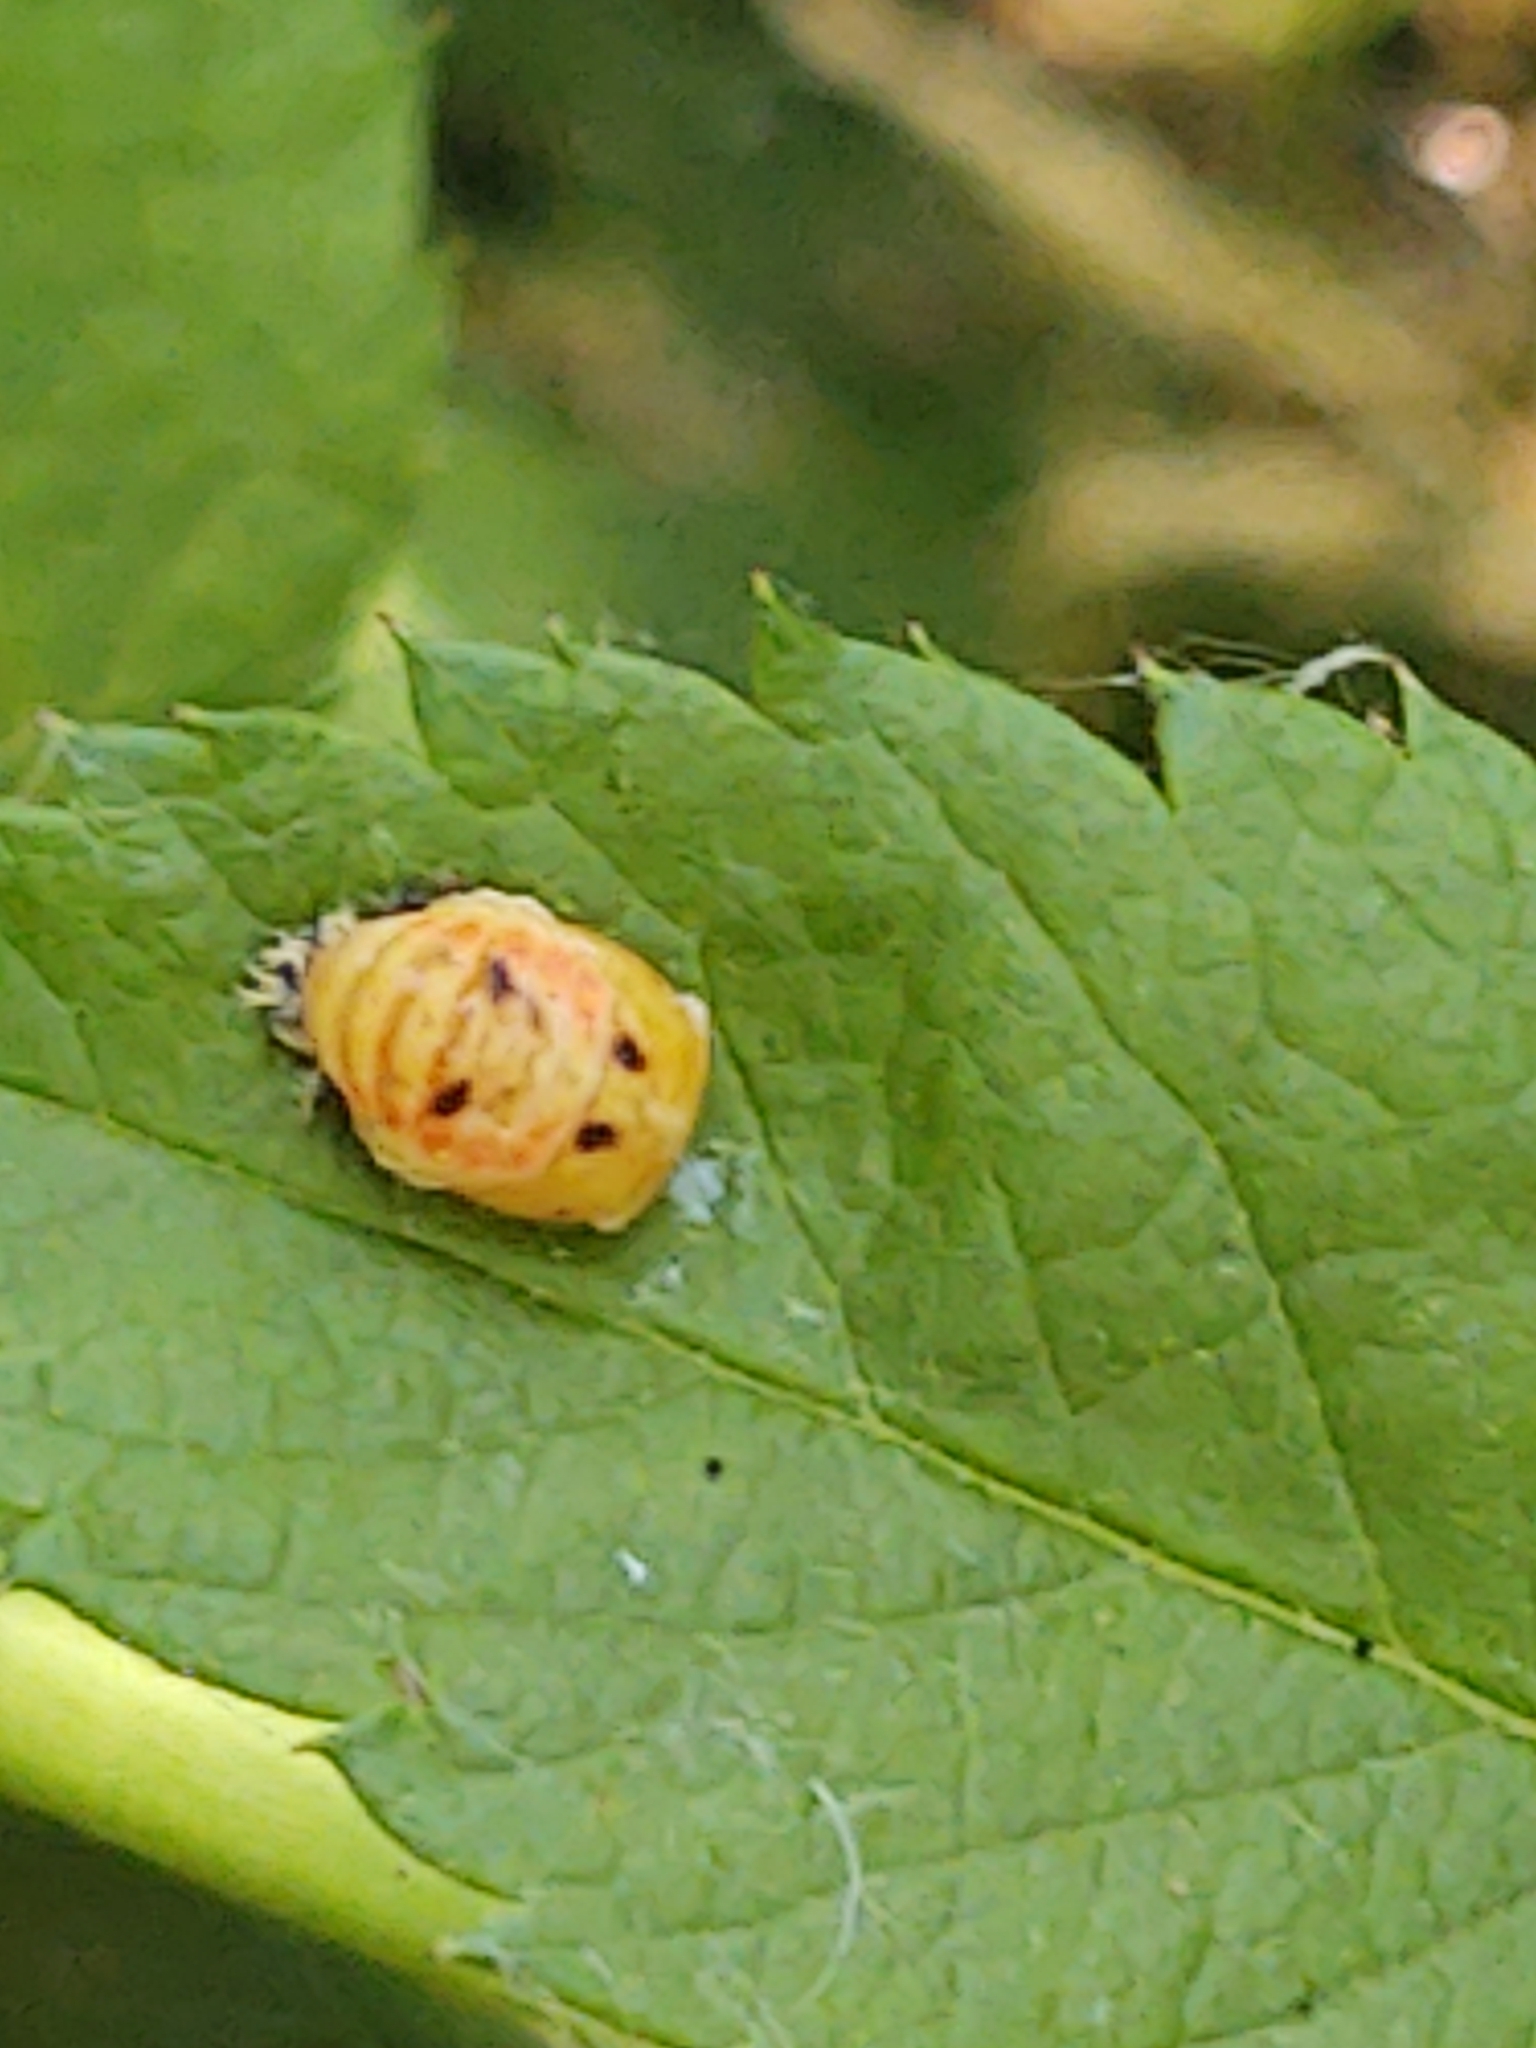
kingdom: Animalia
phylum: Arthropoda
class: Insecta
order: Coleoptera
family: Coccinellidae
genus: Harmonia
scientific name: Harmonia axyridis
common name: Harlequin ladybird
